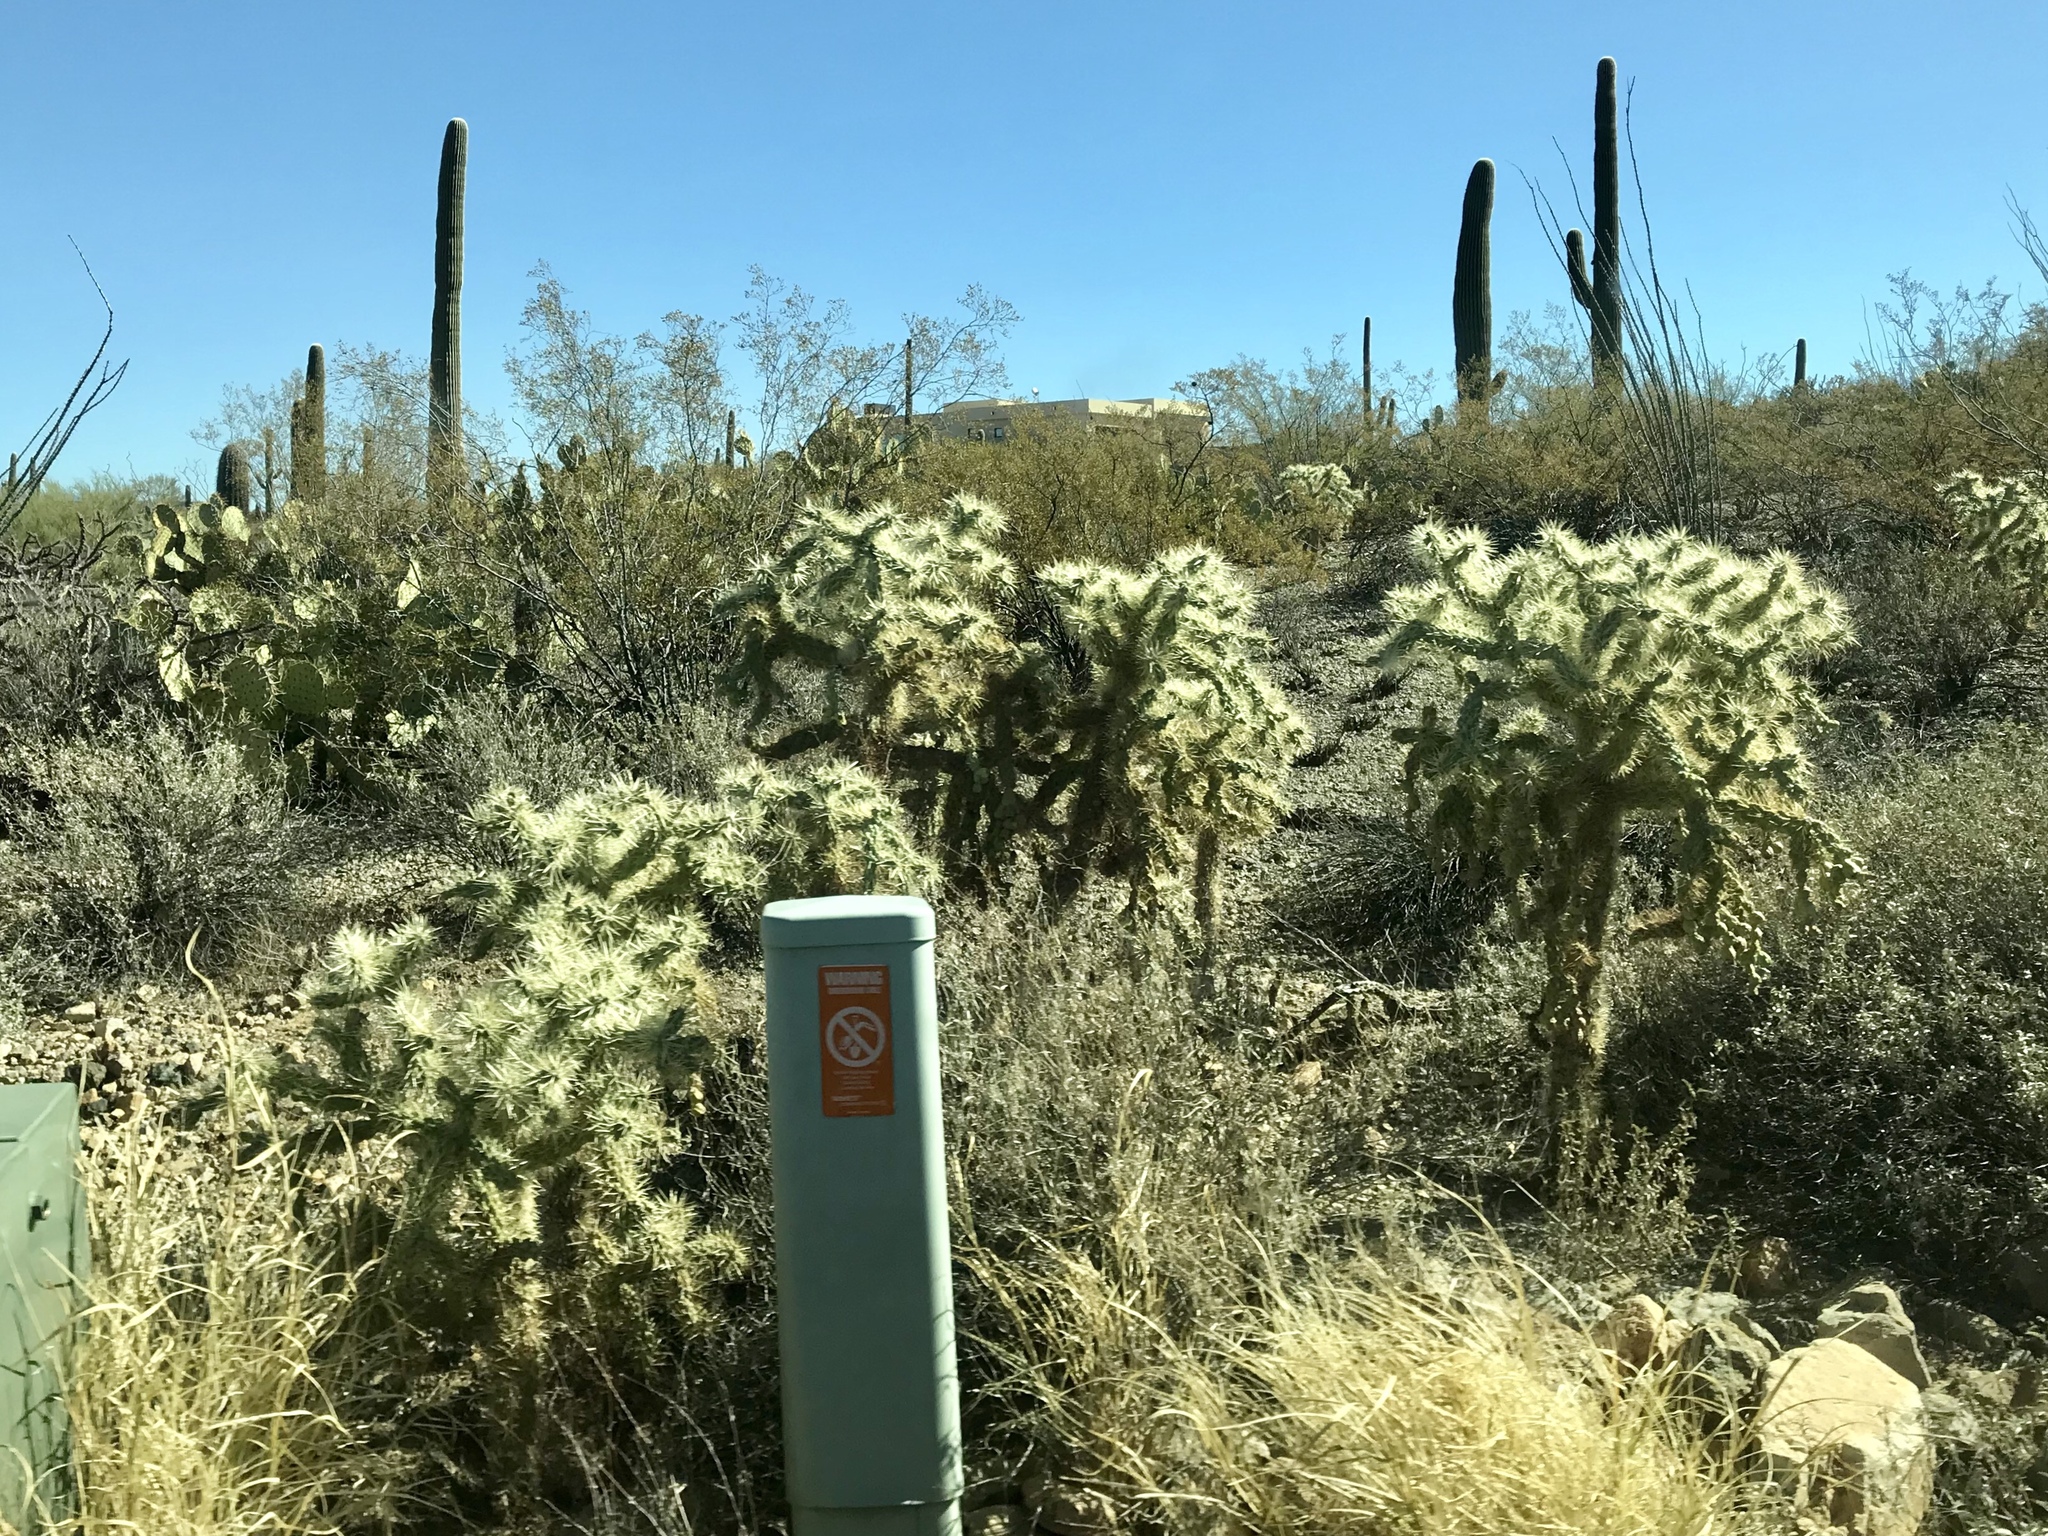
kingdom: Plantae
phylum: Tracheophyta
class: Magnoliopsida
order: Caryophyllales
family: Cactaceae
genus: Cylindropuntia
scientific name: Cylindropuntia fulgida
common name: Jumping cholla
